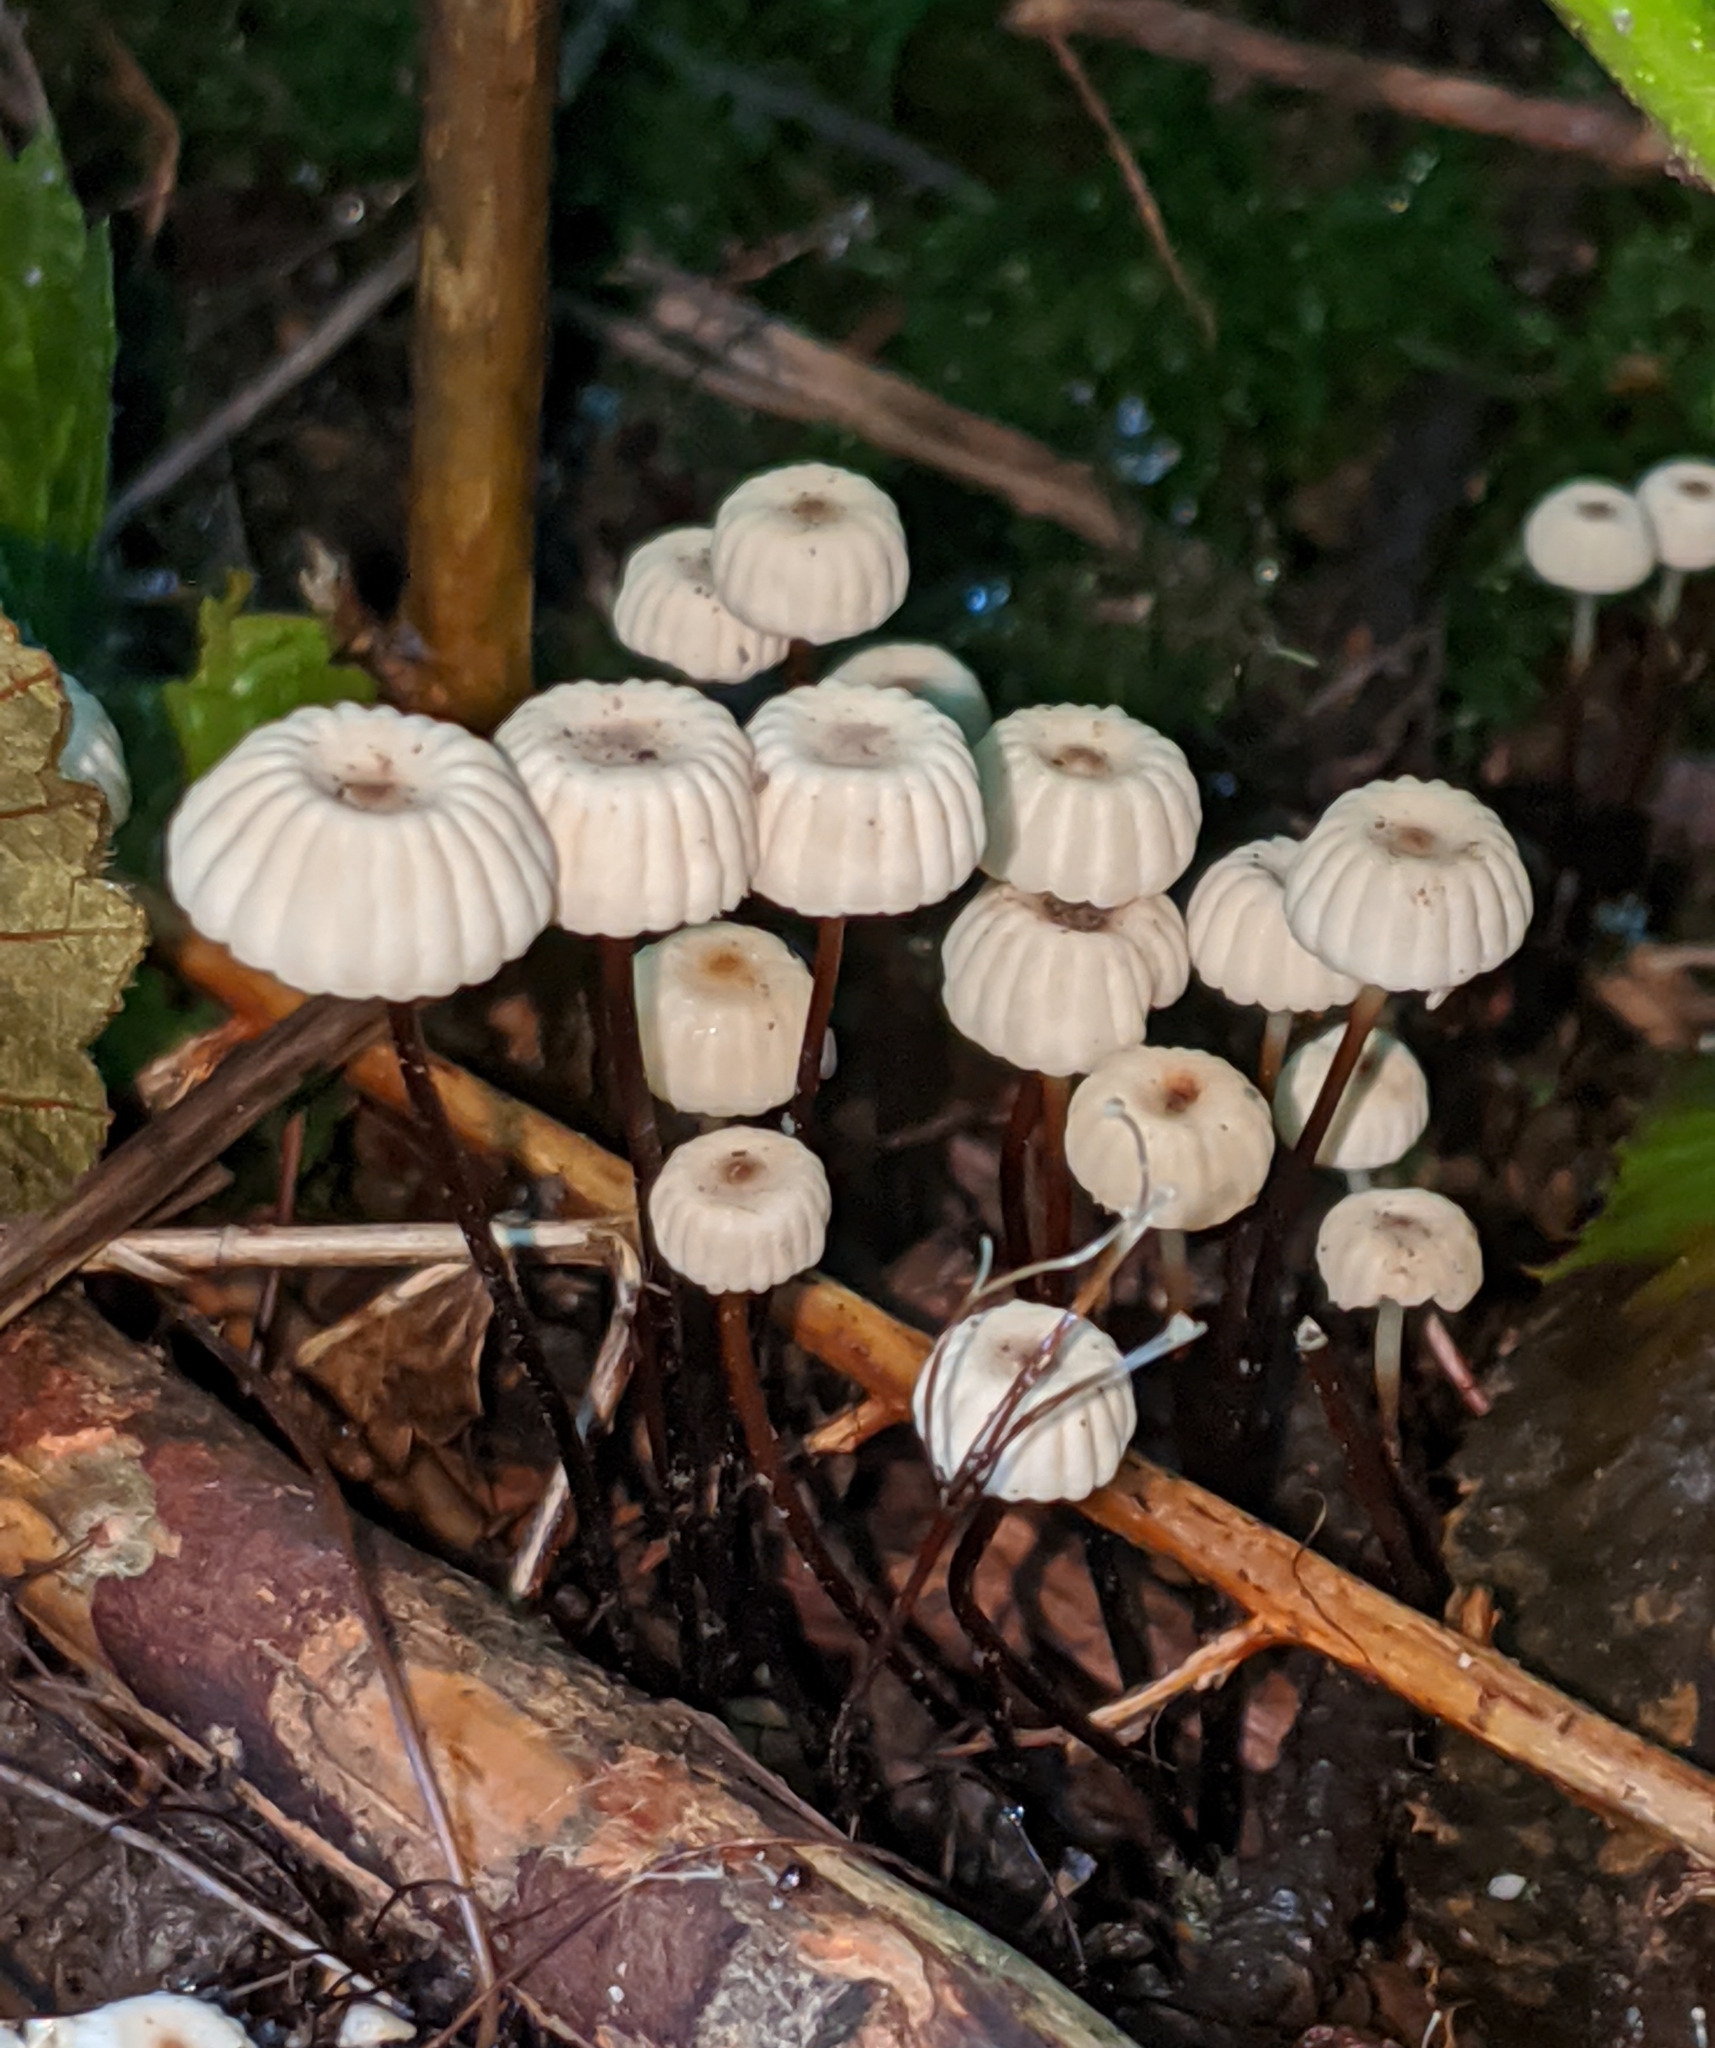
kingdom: Fungi
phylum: Basidiomycota
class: Agaricomycetes
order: Agaricales
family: Marasmiaceae
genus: Marasmius
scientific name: Marasmius rotula
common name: Collared parachute
